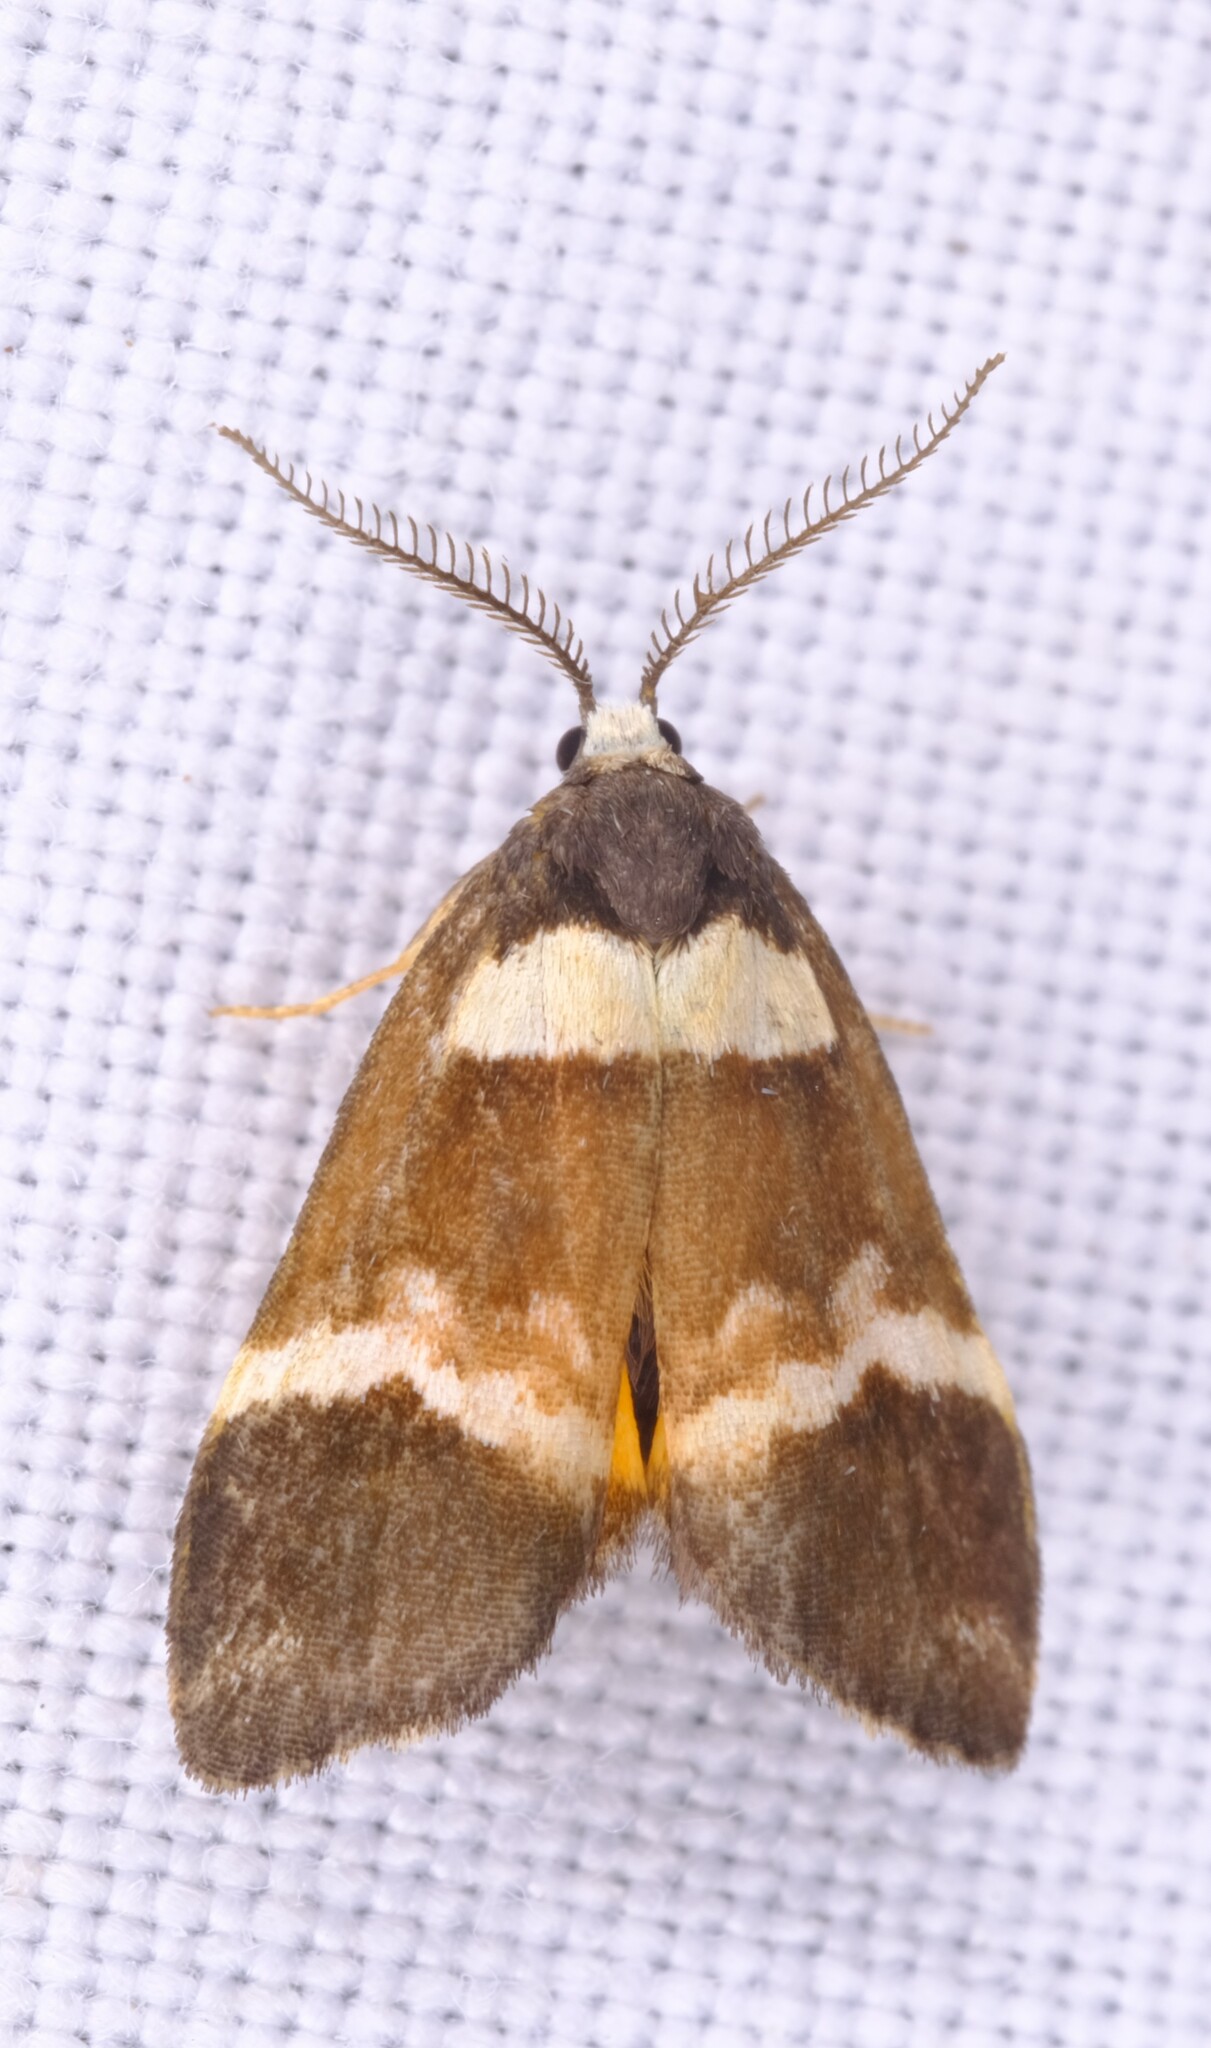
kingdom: Animalia
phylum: Arthropoda
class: Insecta
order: Lepidoptera
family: Erebidae
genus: Thallarcha
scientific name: Thallarcha phalarota
